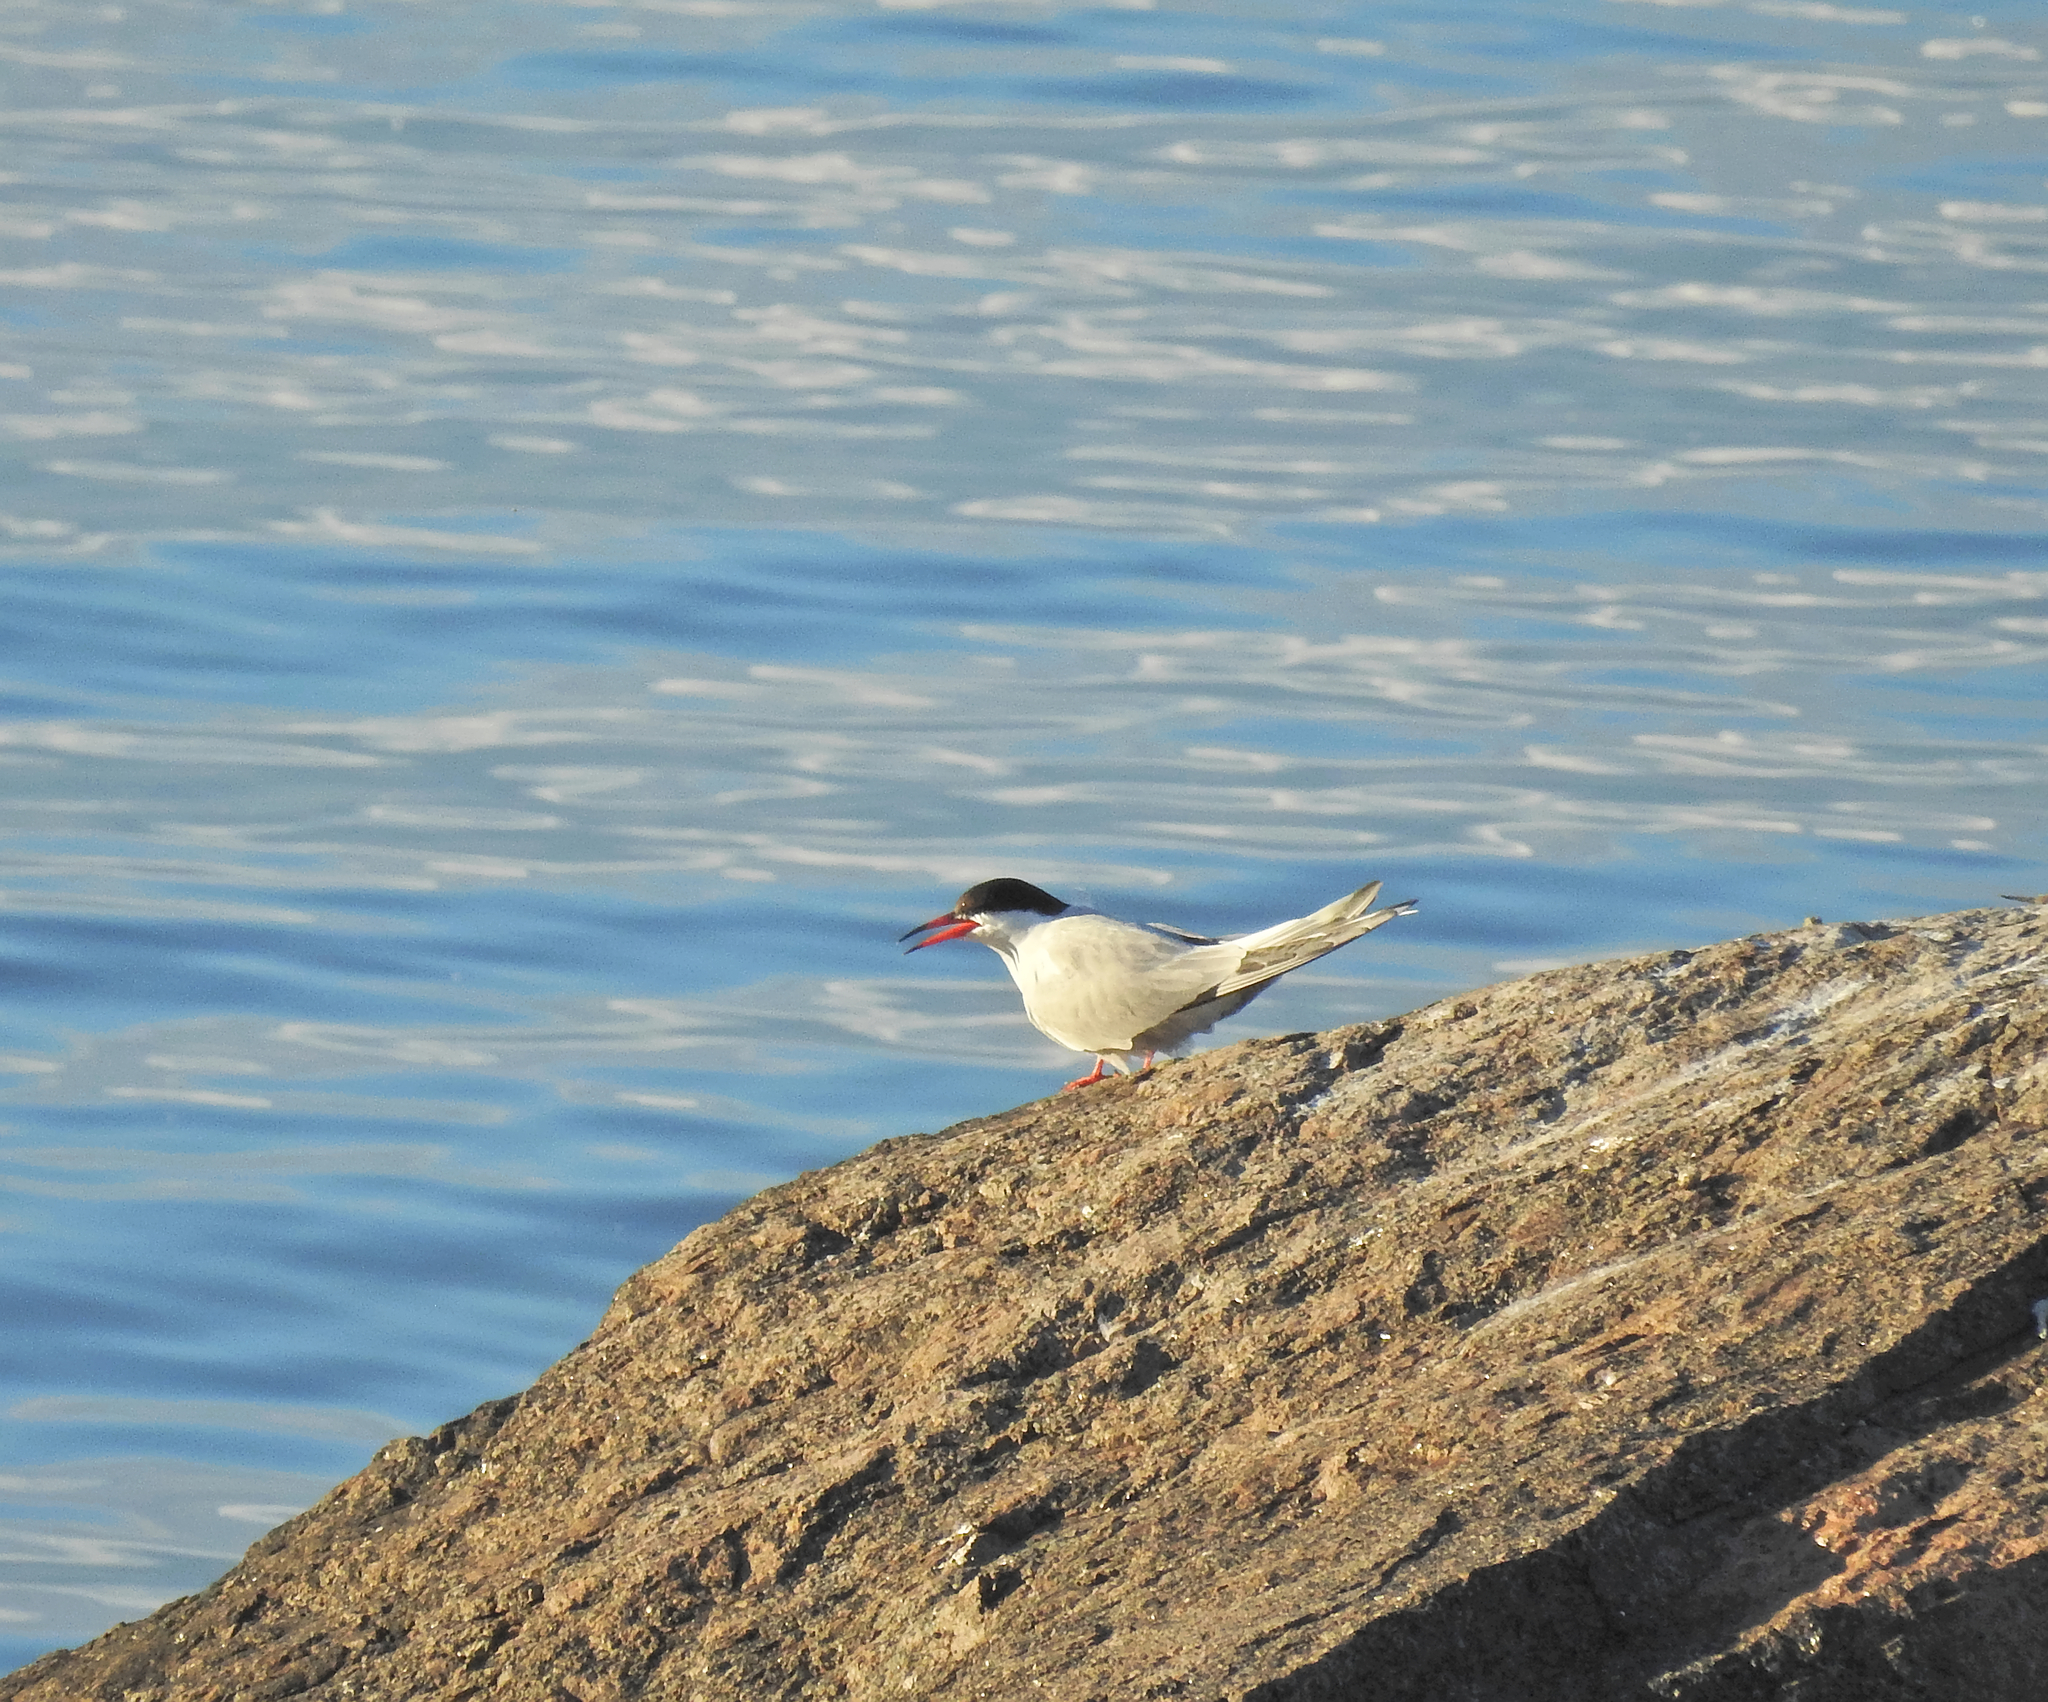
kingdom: Animalia
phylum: Chordata
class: Aves
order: Charadriiformes
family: Laridae
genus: Sterna
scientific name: Sterna hirundo
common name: Common tern
